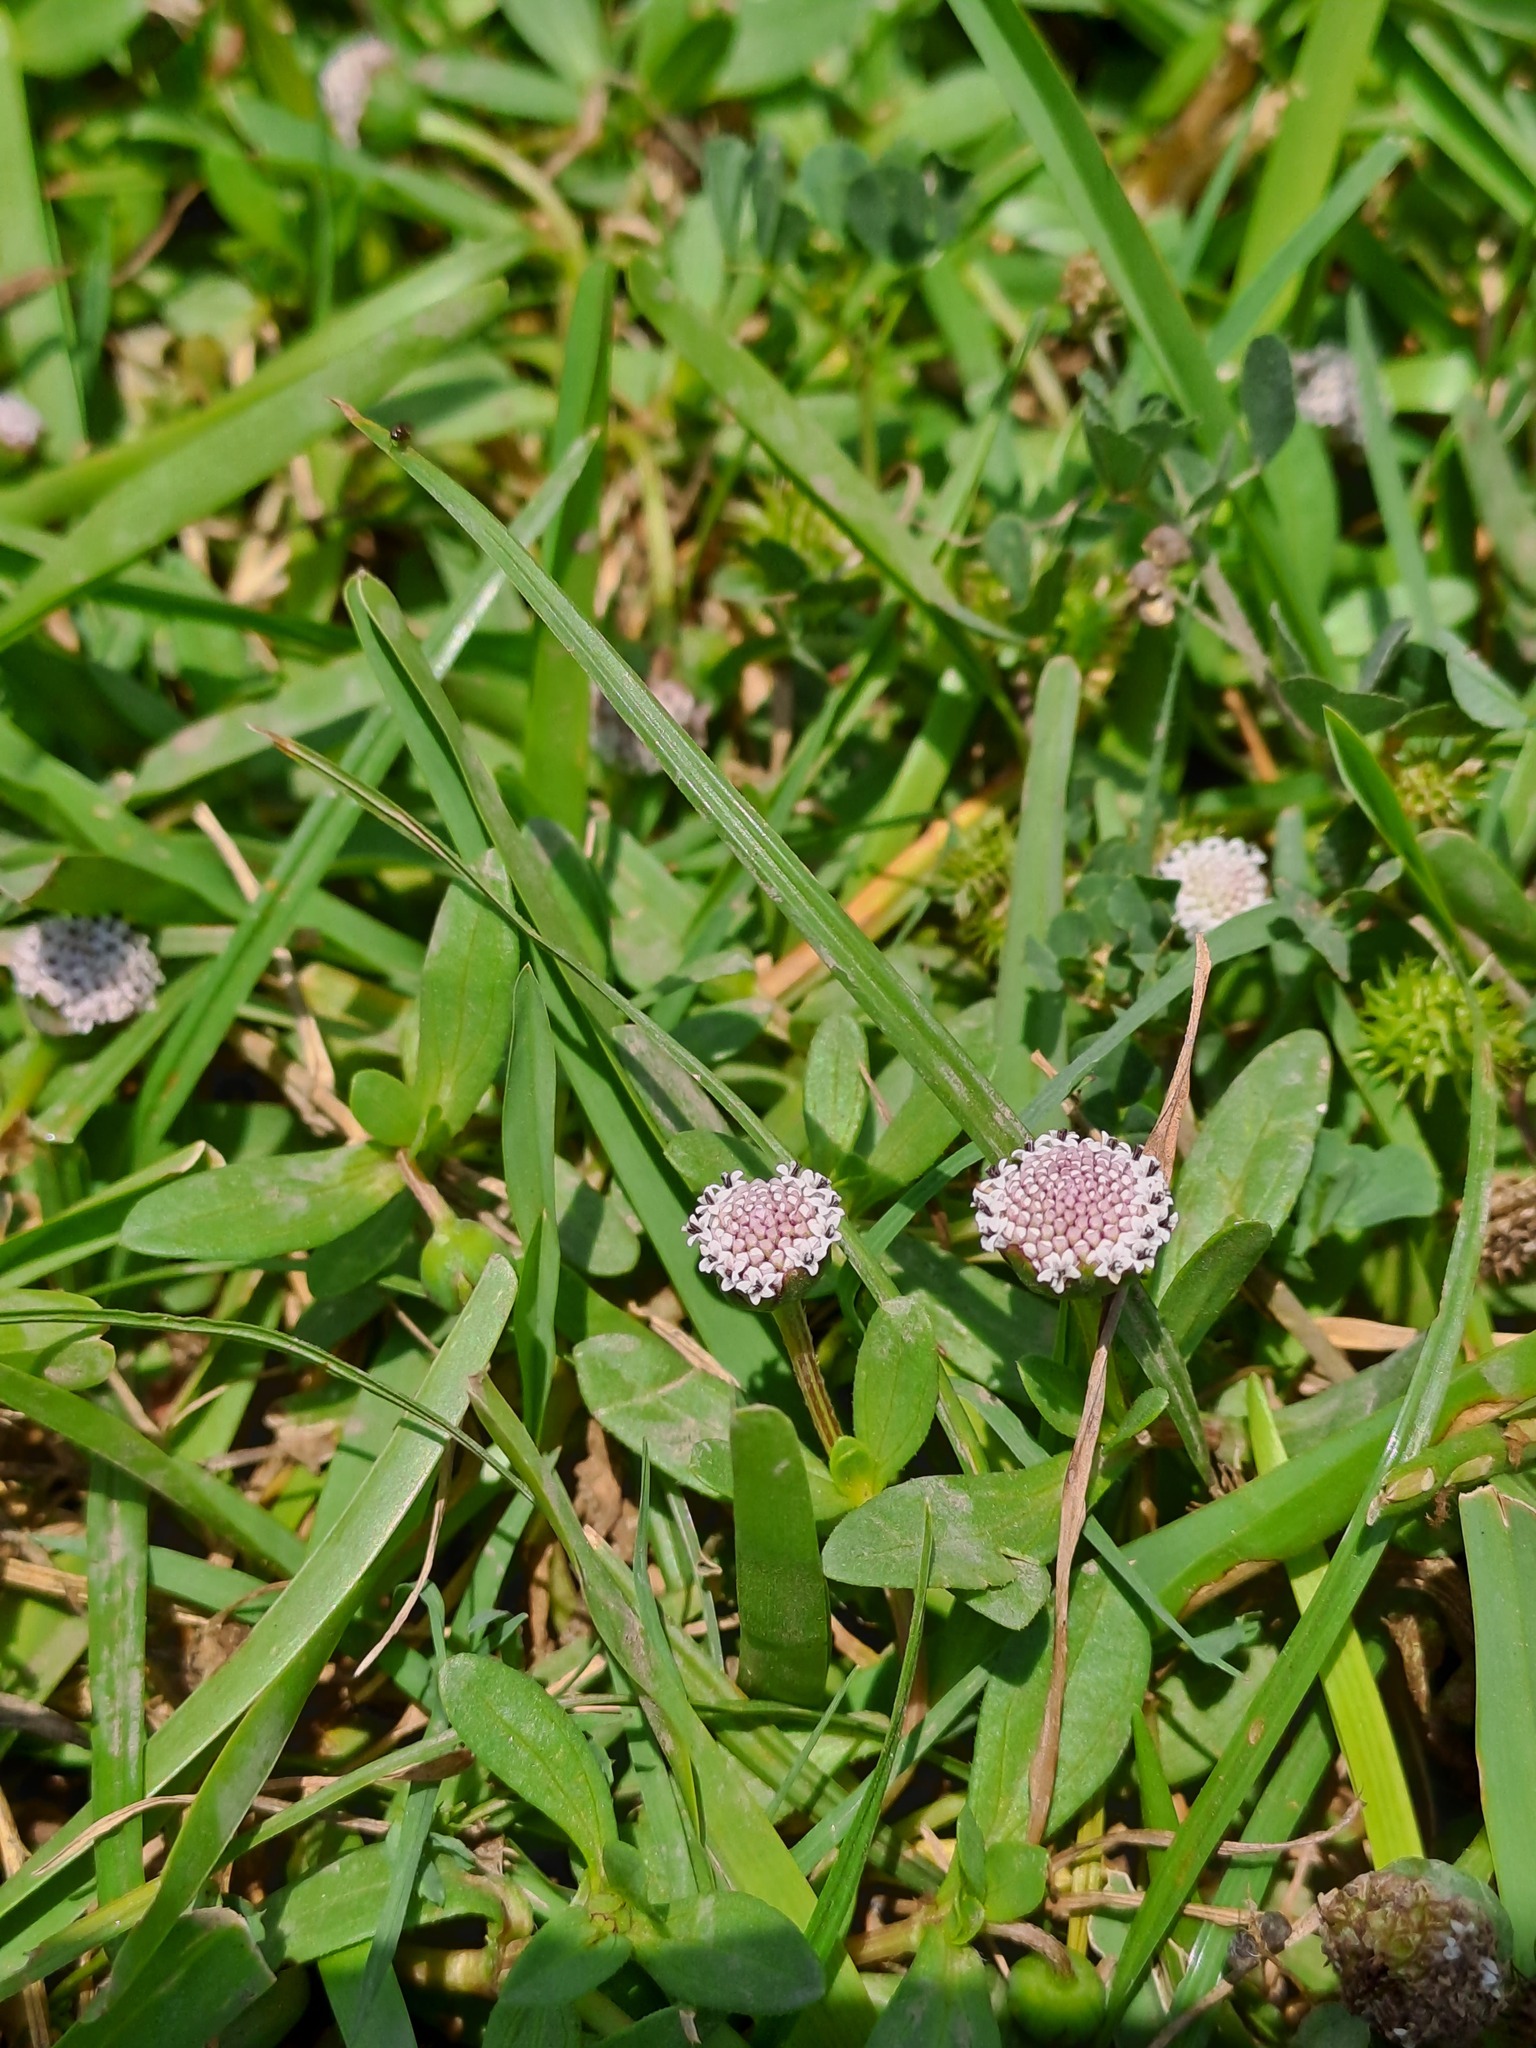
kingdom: Plantae
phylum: Tracheophyta
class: Magnoliopsida
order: Asterales
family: Asteraceae
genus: Spilanthes
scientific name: Spilanthes leiocarpa
